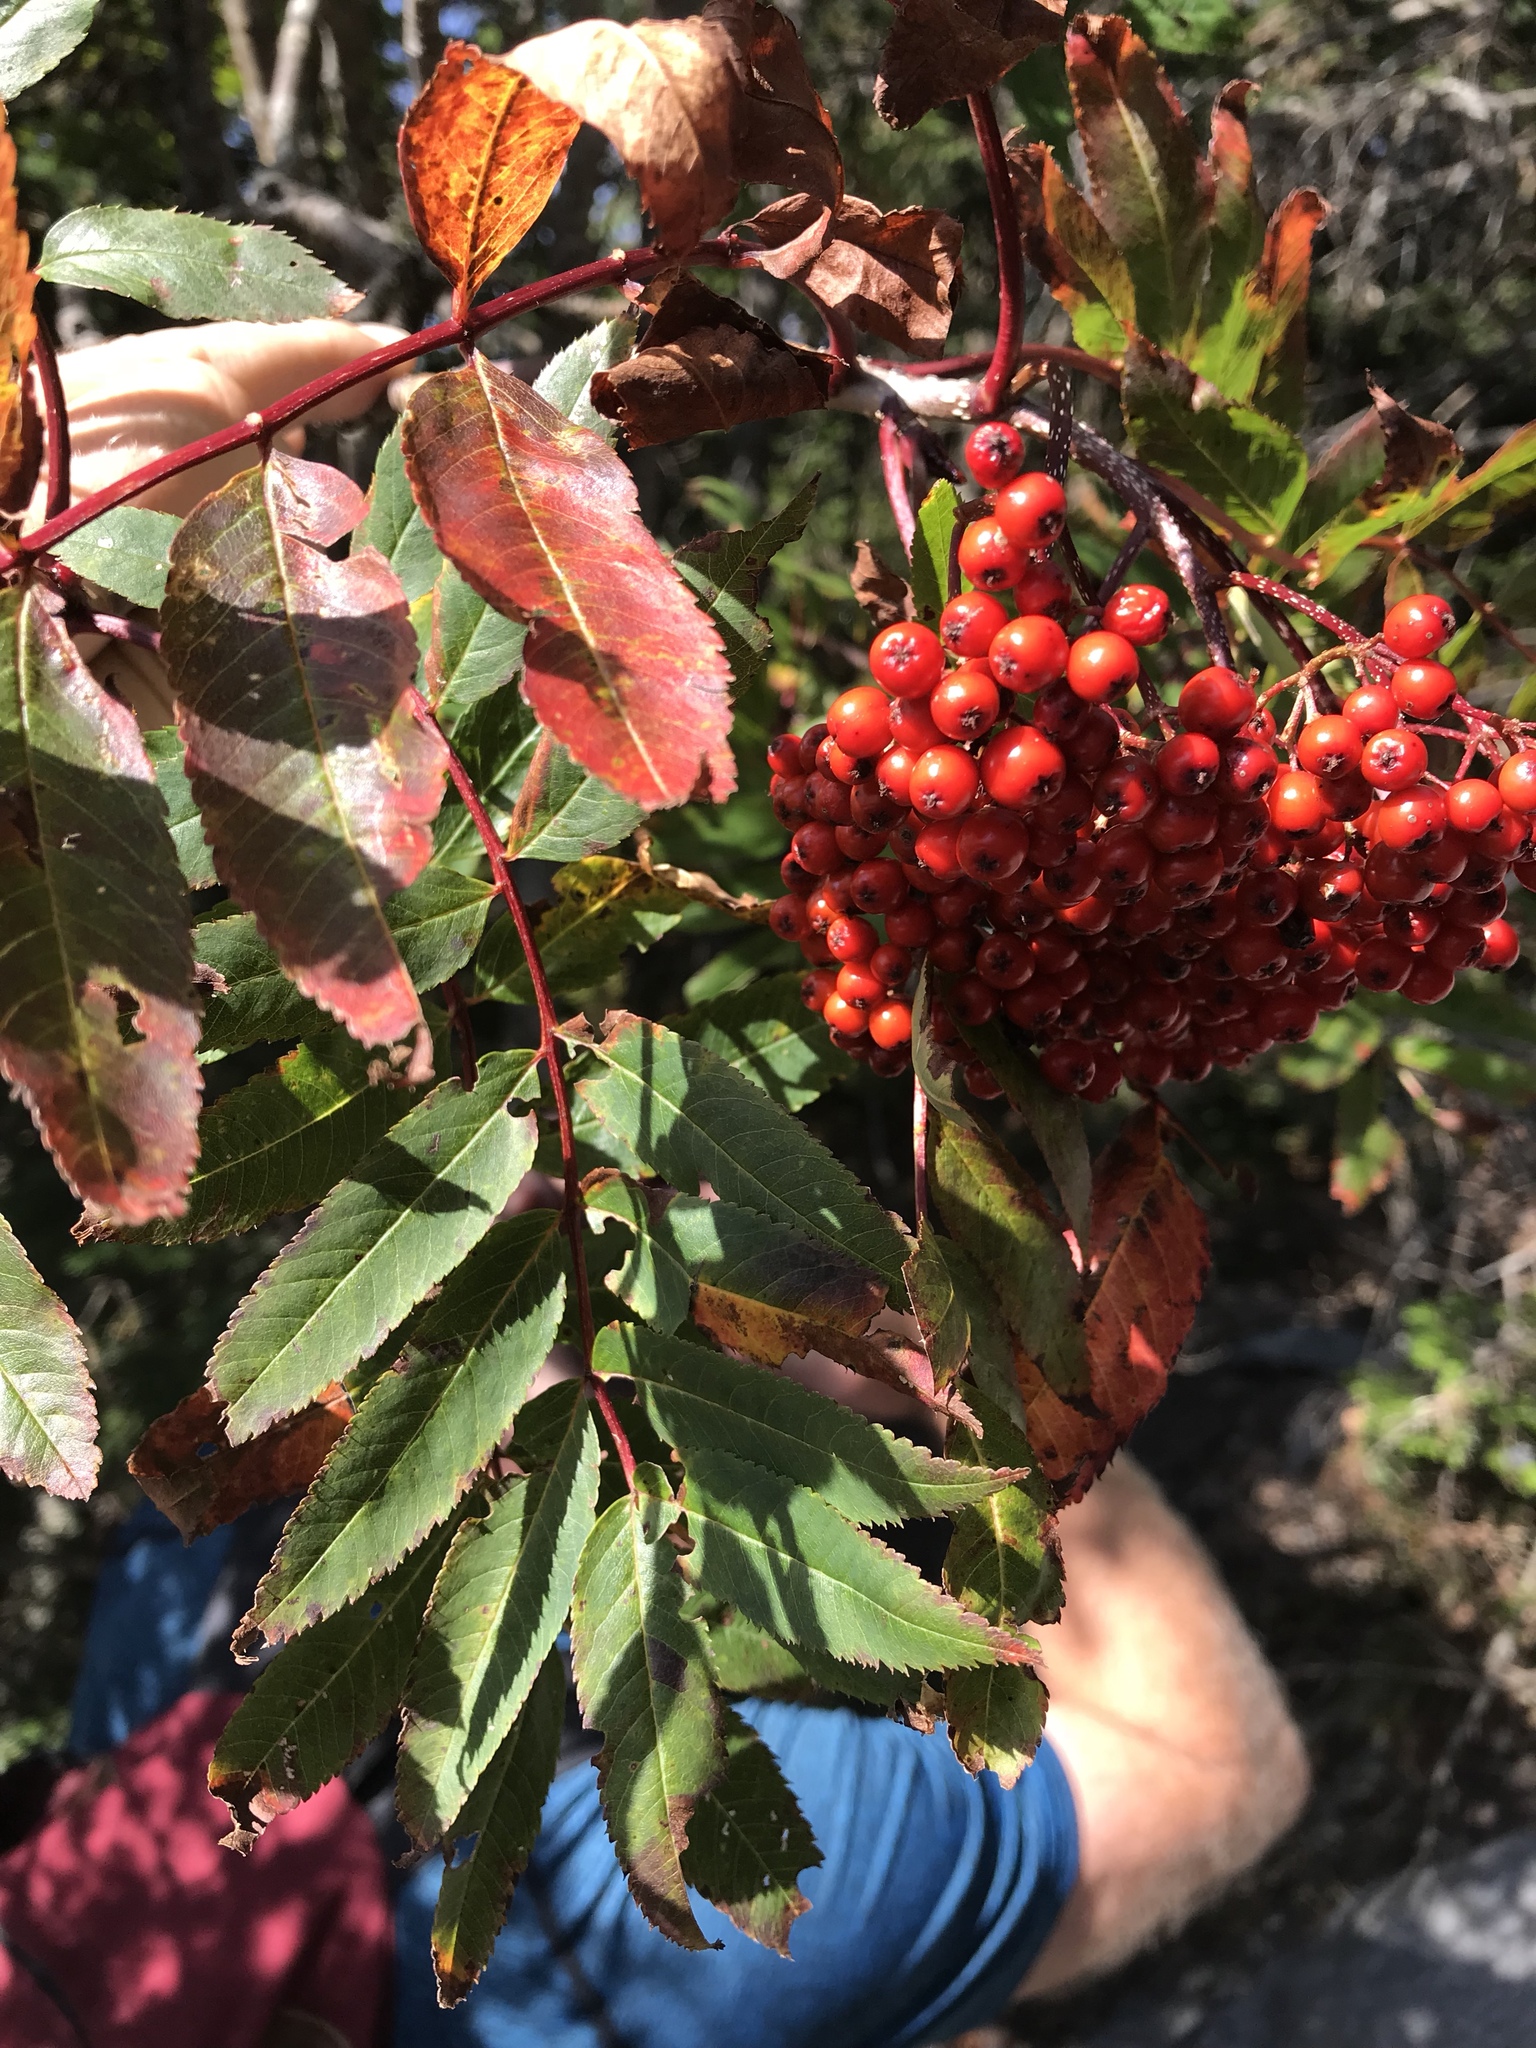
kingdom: Plantae
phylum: Tracheophyta
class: Magnoliopsida
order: Rosales
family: Rosaceae
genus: Sorbus
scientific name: Sorbus americana
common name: American mountain-ash
